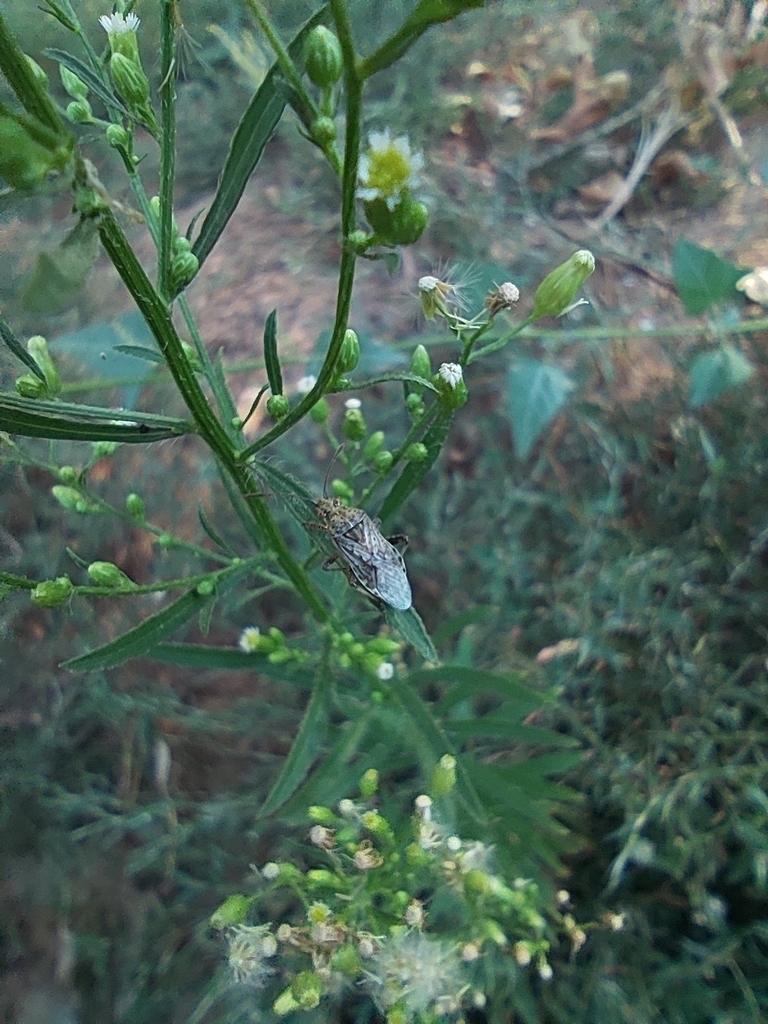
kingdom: Plantae
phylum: Tracheophyta
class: Magnoliopsida
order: Asterales
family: Asteraceae
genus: Erigeron
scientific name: Erigeron canadensis
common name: Canadian fleabane
